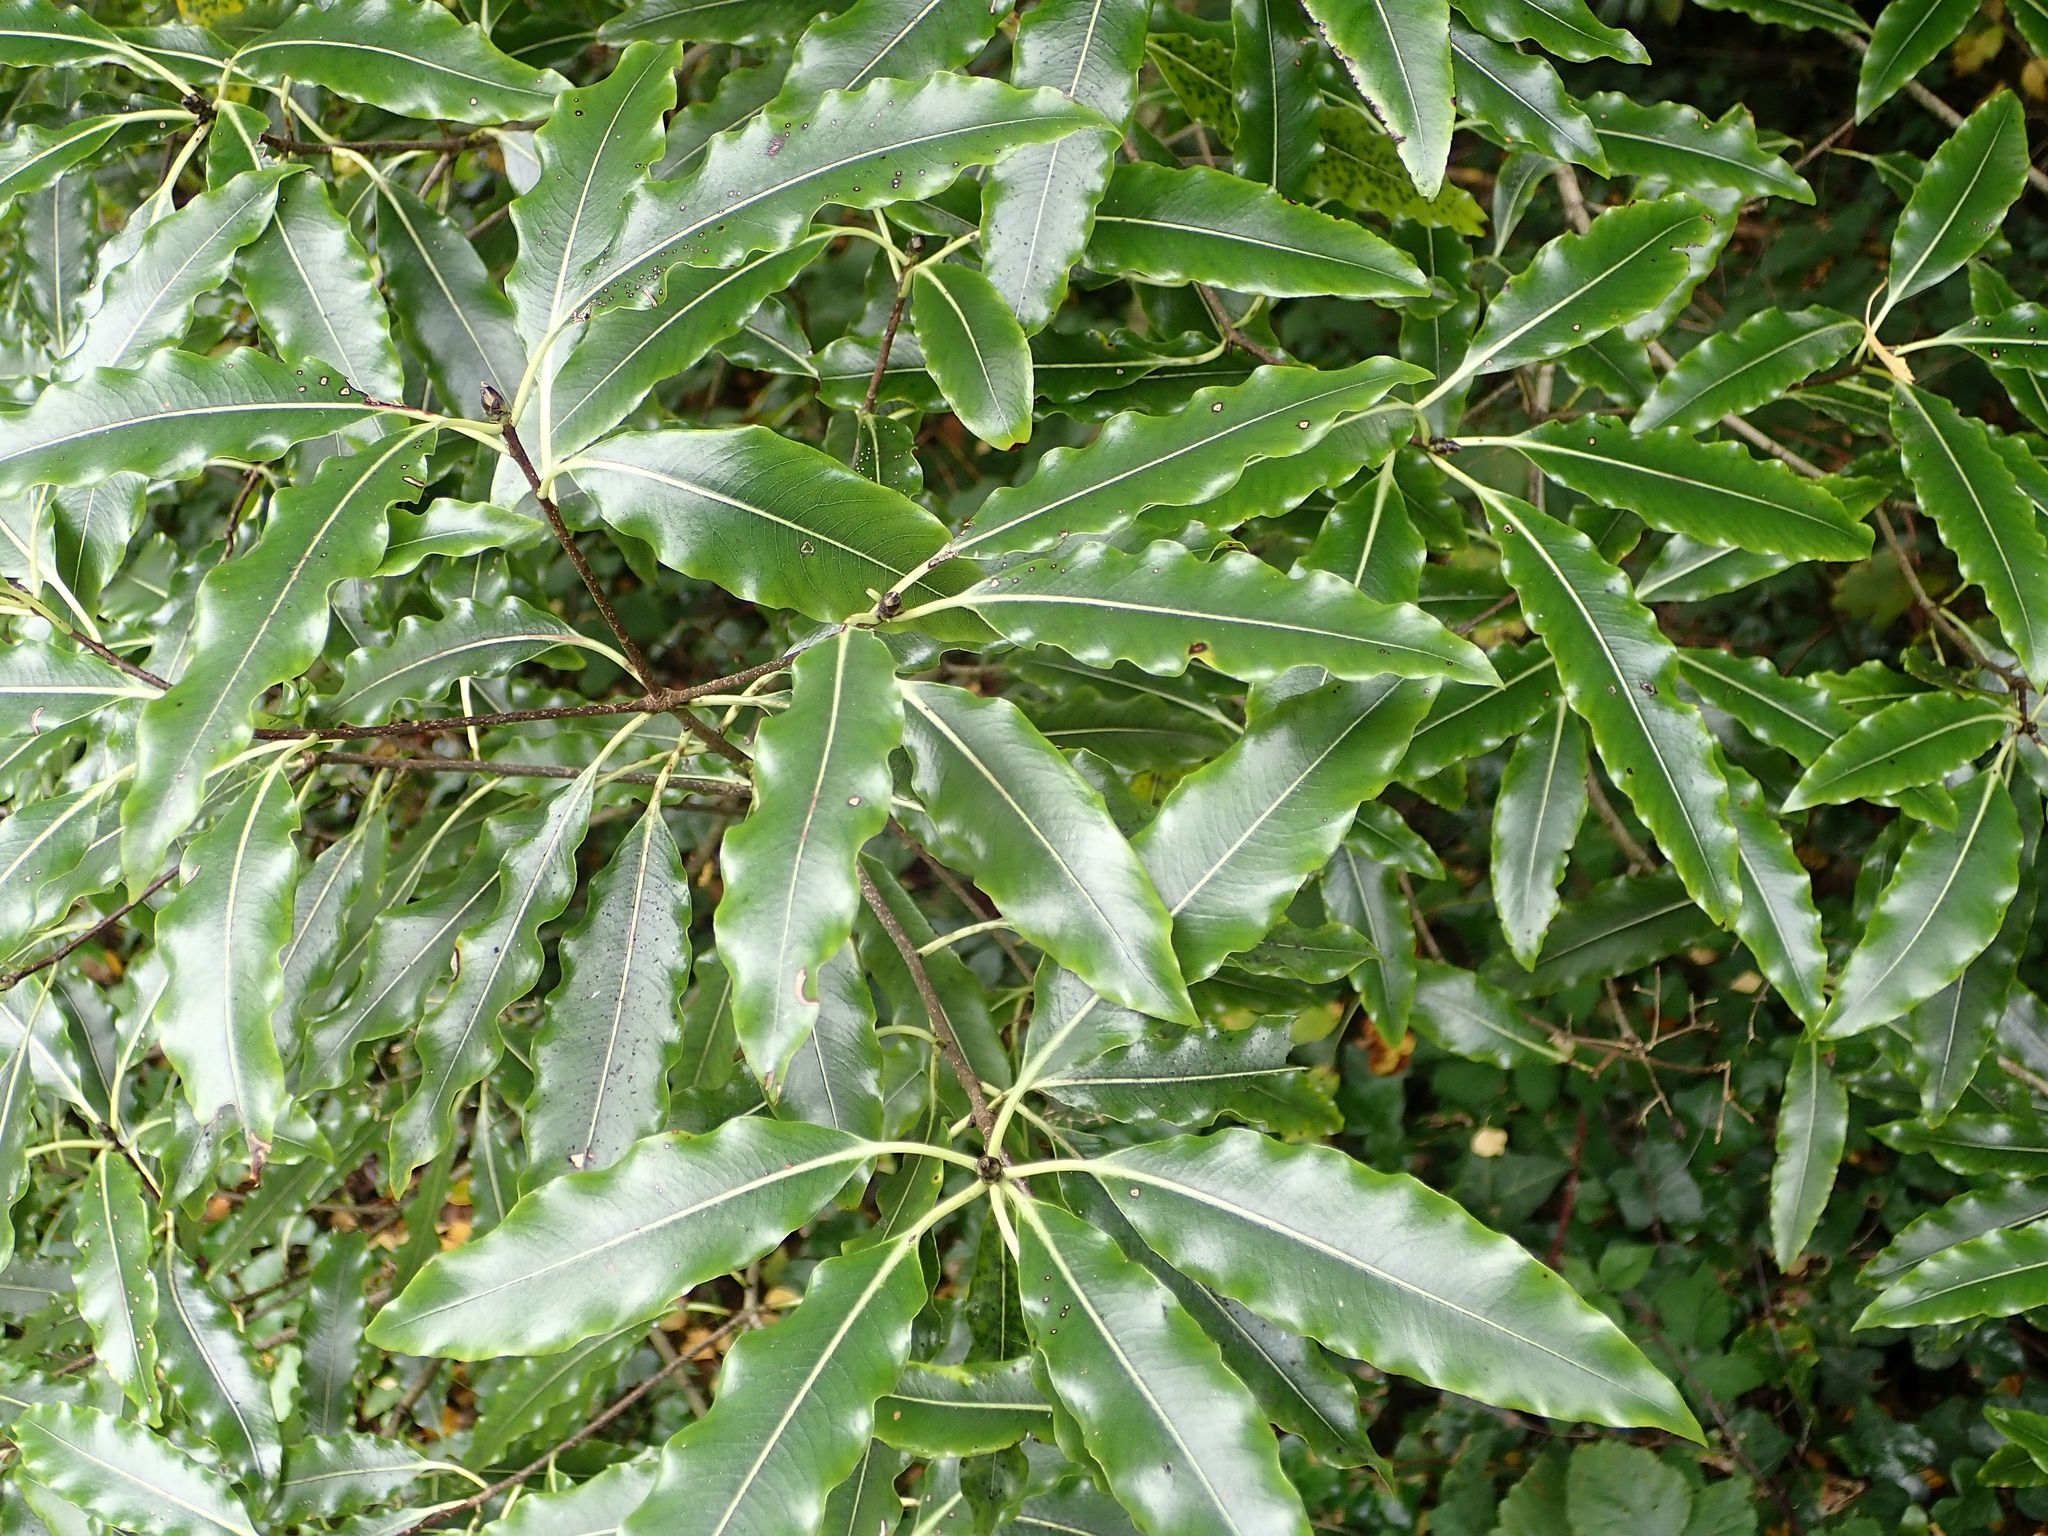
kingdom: Plantae
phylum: Tracheophyta
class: Magnoliopsida
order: Apiales
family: Pittosporaceae
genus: Pittosporum
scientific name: Pittosporum eugenioides
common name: Lemonwood
